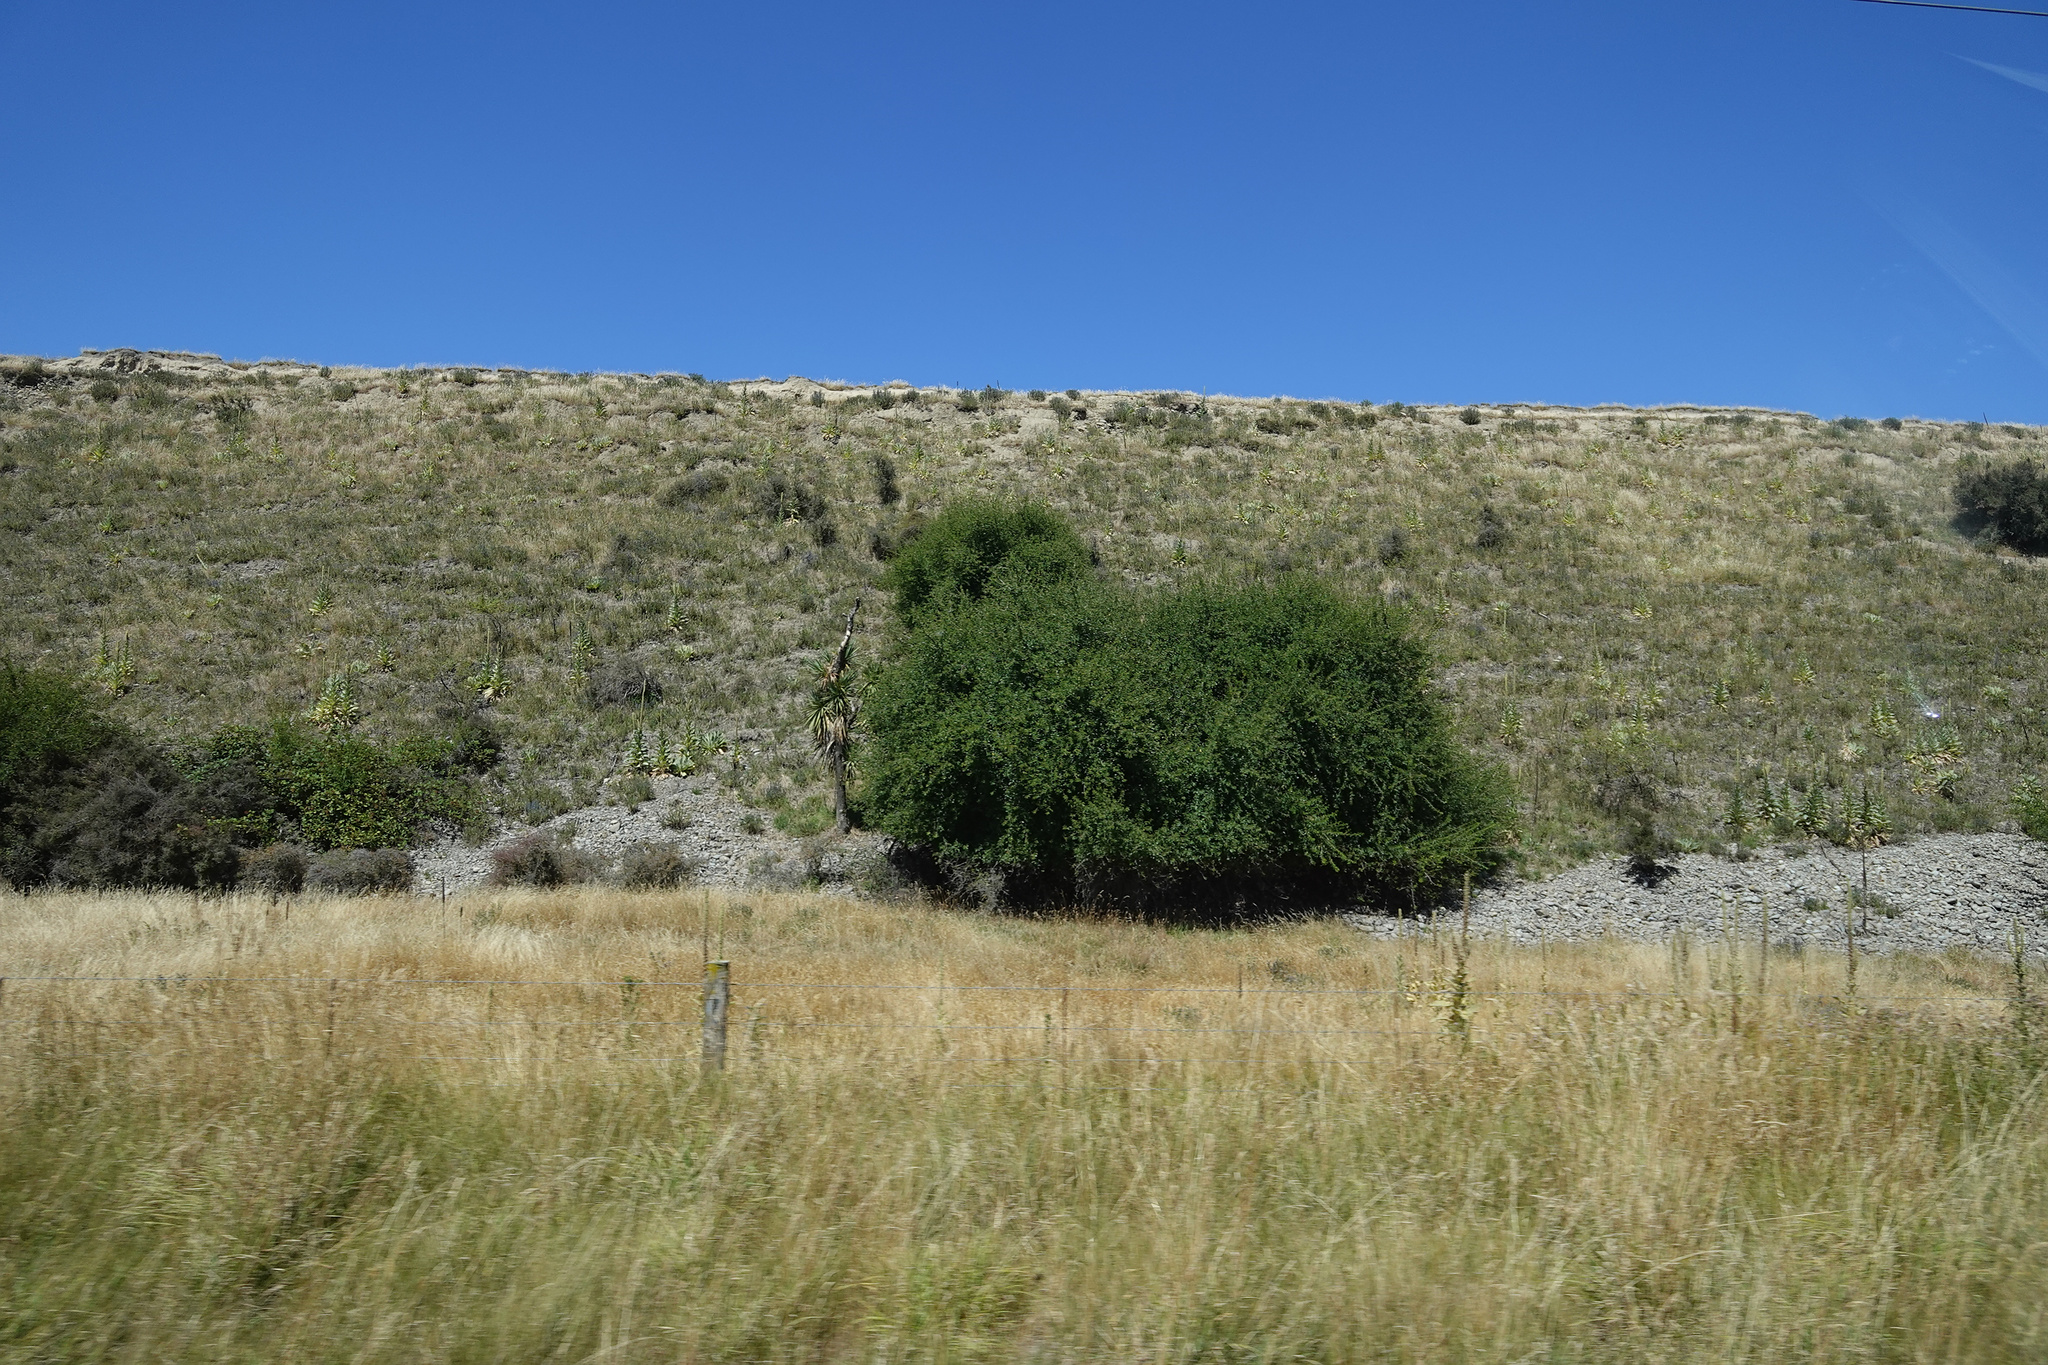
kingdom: Plantae
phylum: Tracheophyta
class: Liliopsida
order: Asparagales
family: Asparagaceae
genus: Cordyline
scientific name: Cordyline australis
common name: Cabbage-palm
